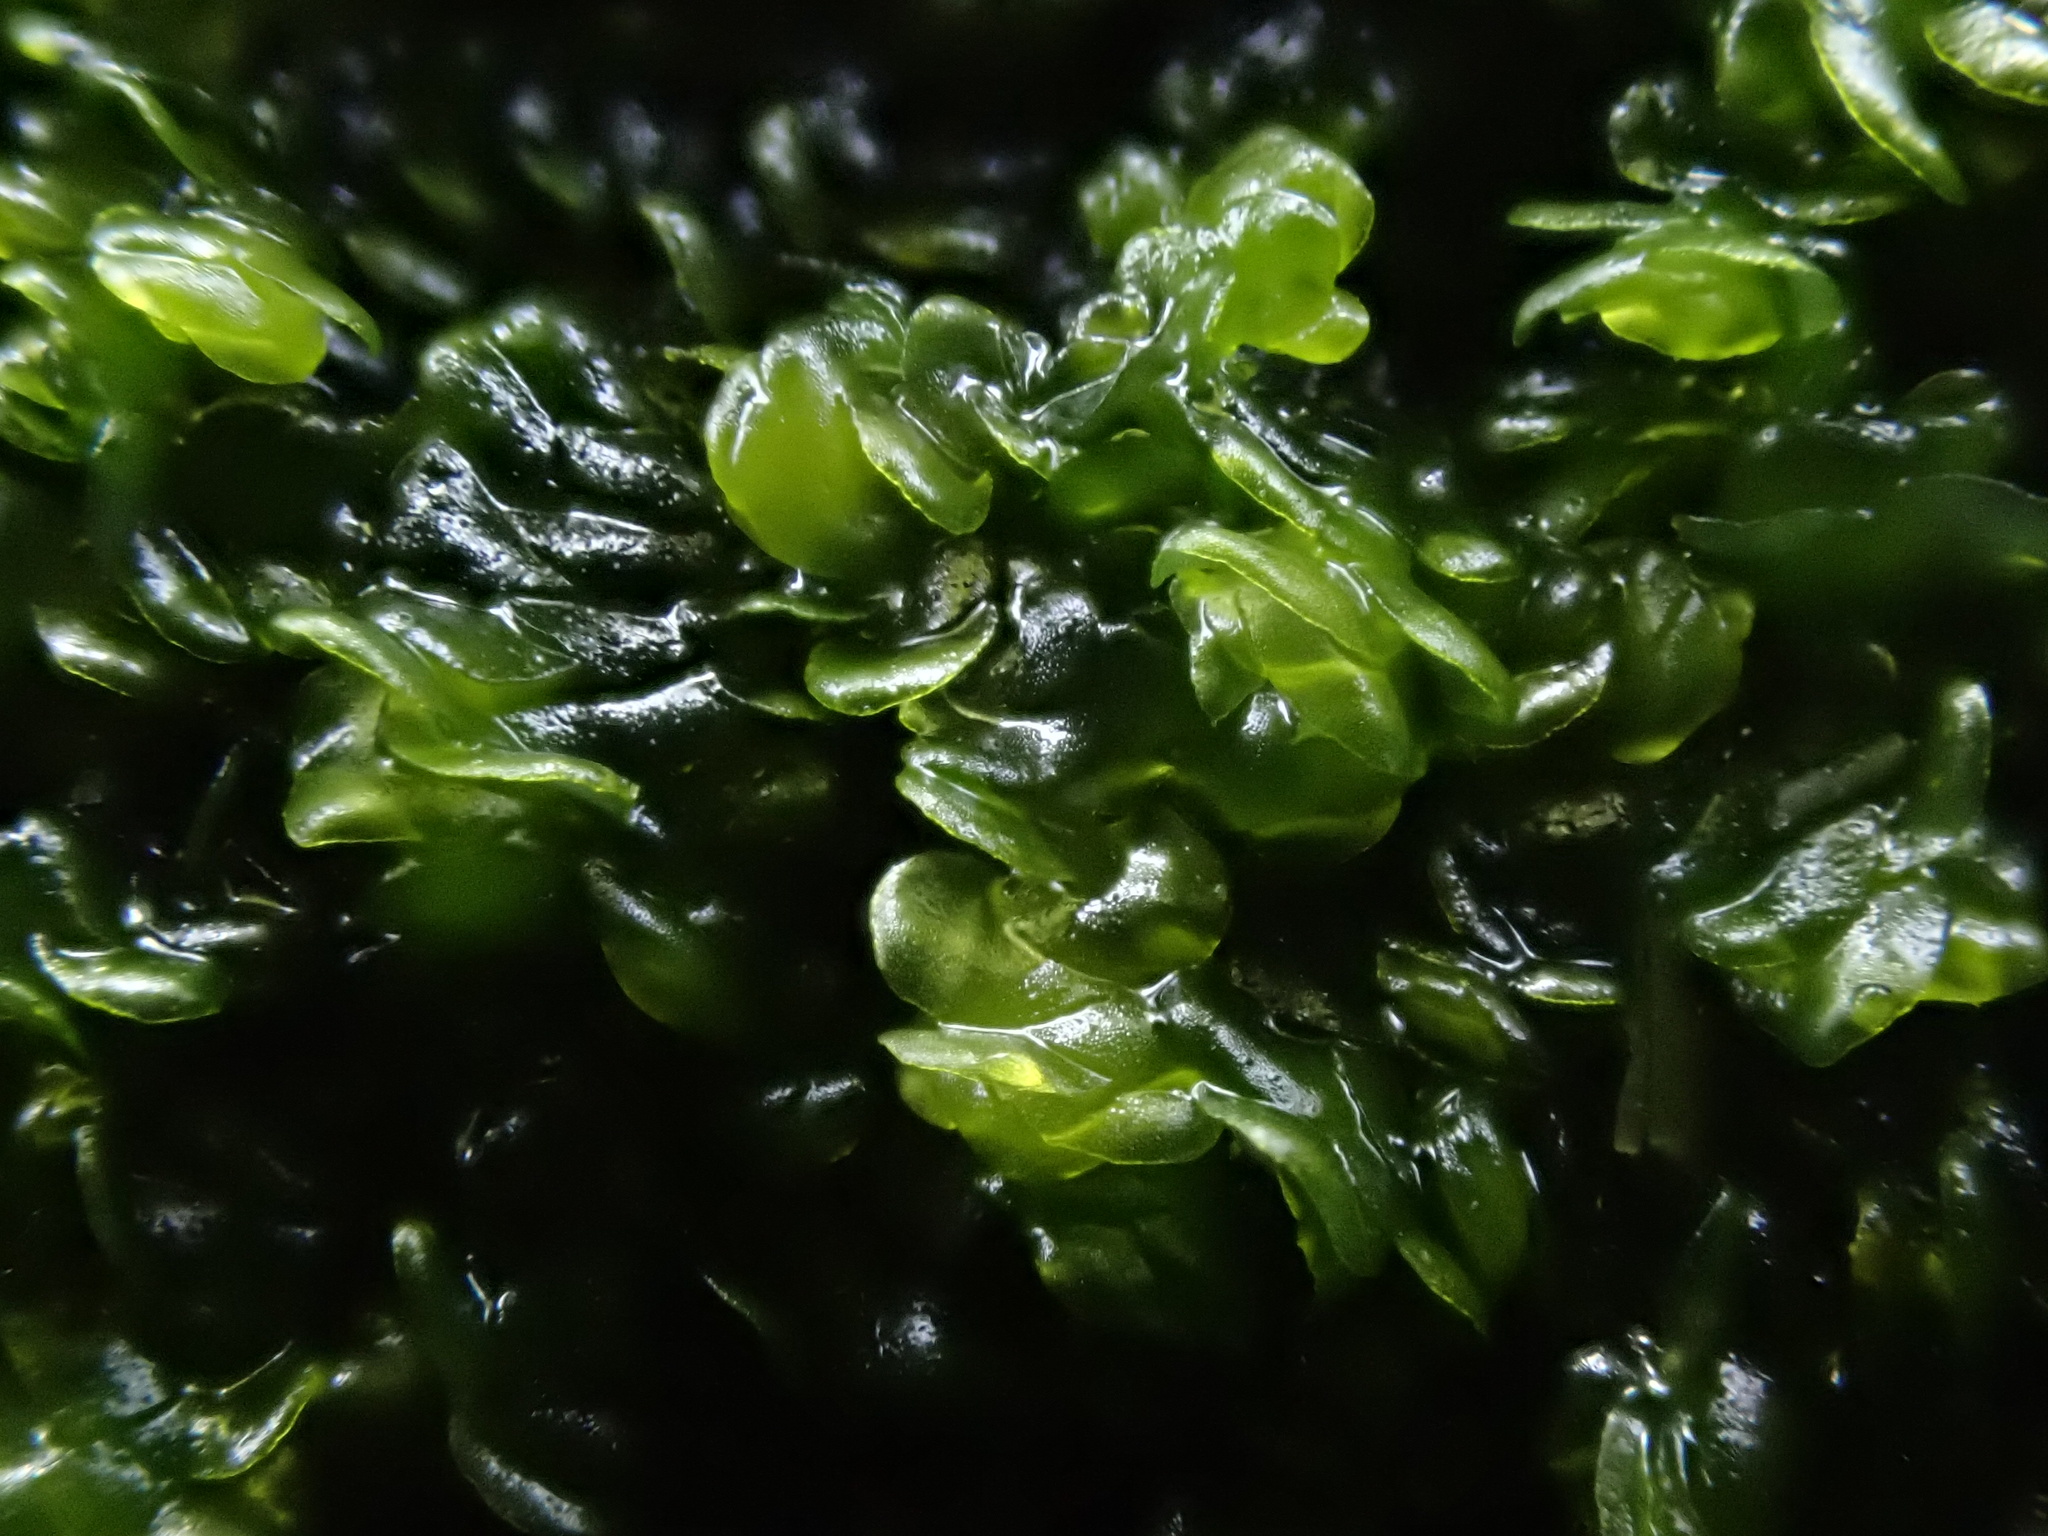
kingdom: Plantae
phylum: Marchantiophyta
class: Jungermanniopsida
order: Porellales
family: Frullaniaceae
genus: Frullania
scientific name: Frullania dilatata
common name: Dilated scalewort
